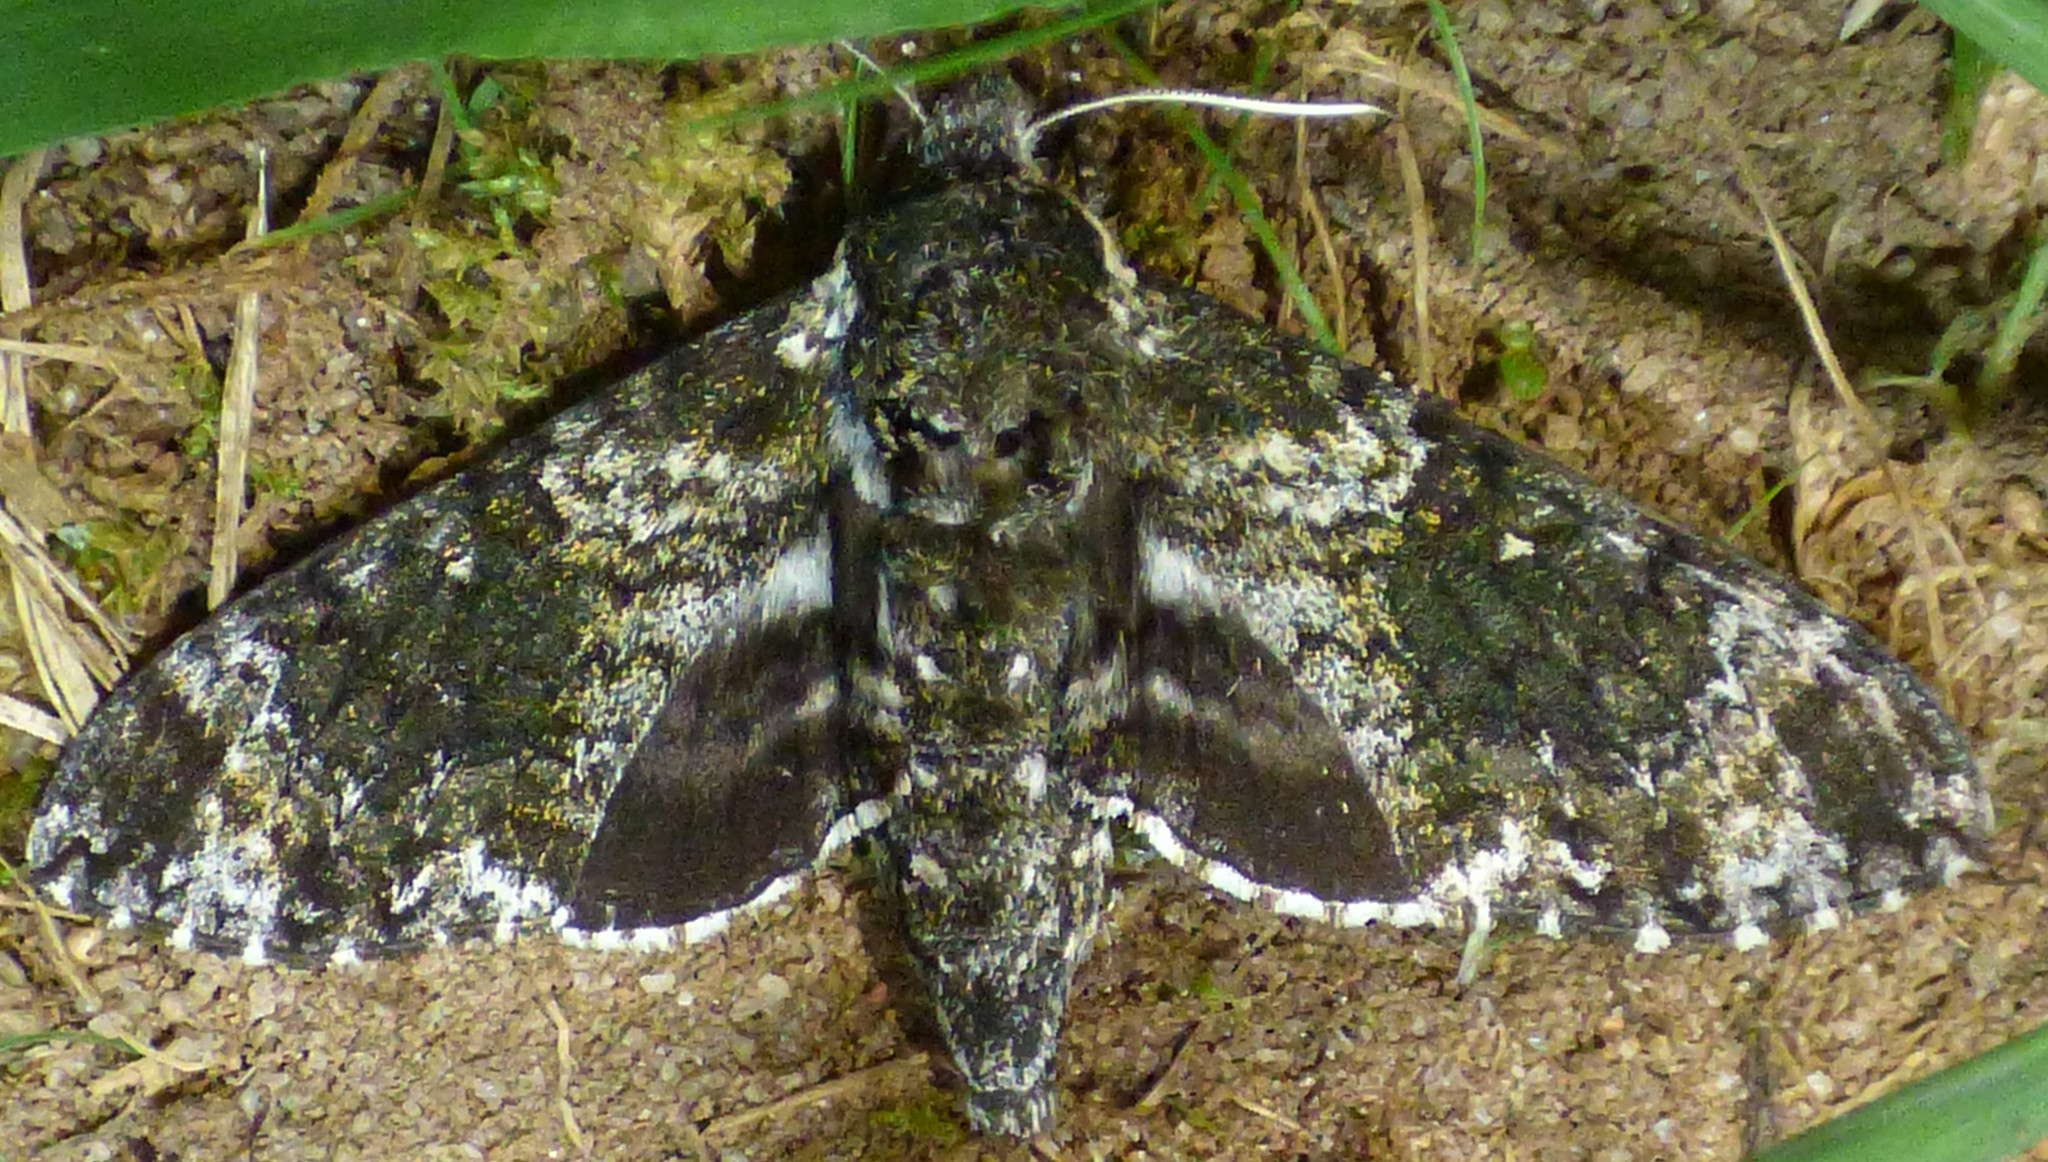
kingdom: Animalia
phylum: Arthropoda
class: Insecta
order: Lepidoptera
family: Sphingidae
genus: Dolba
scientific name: Dolba hyloeus
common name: Pawpaw sphinx
